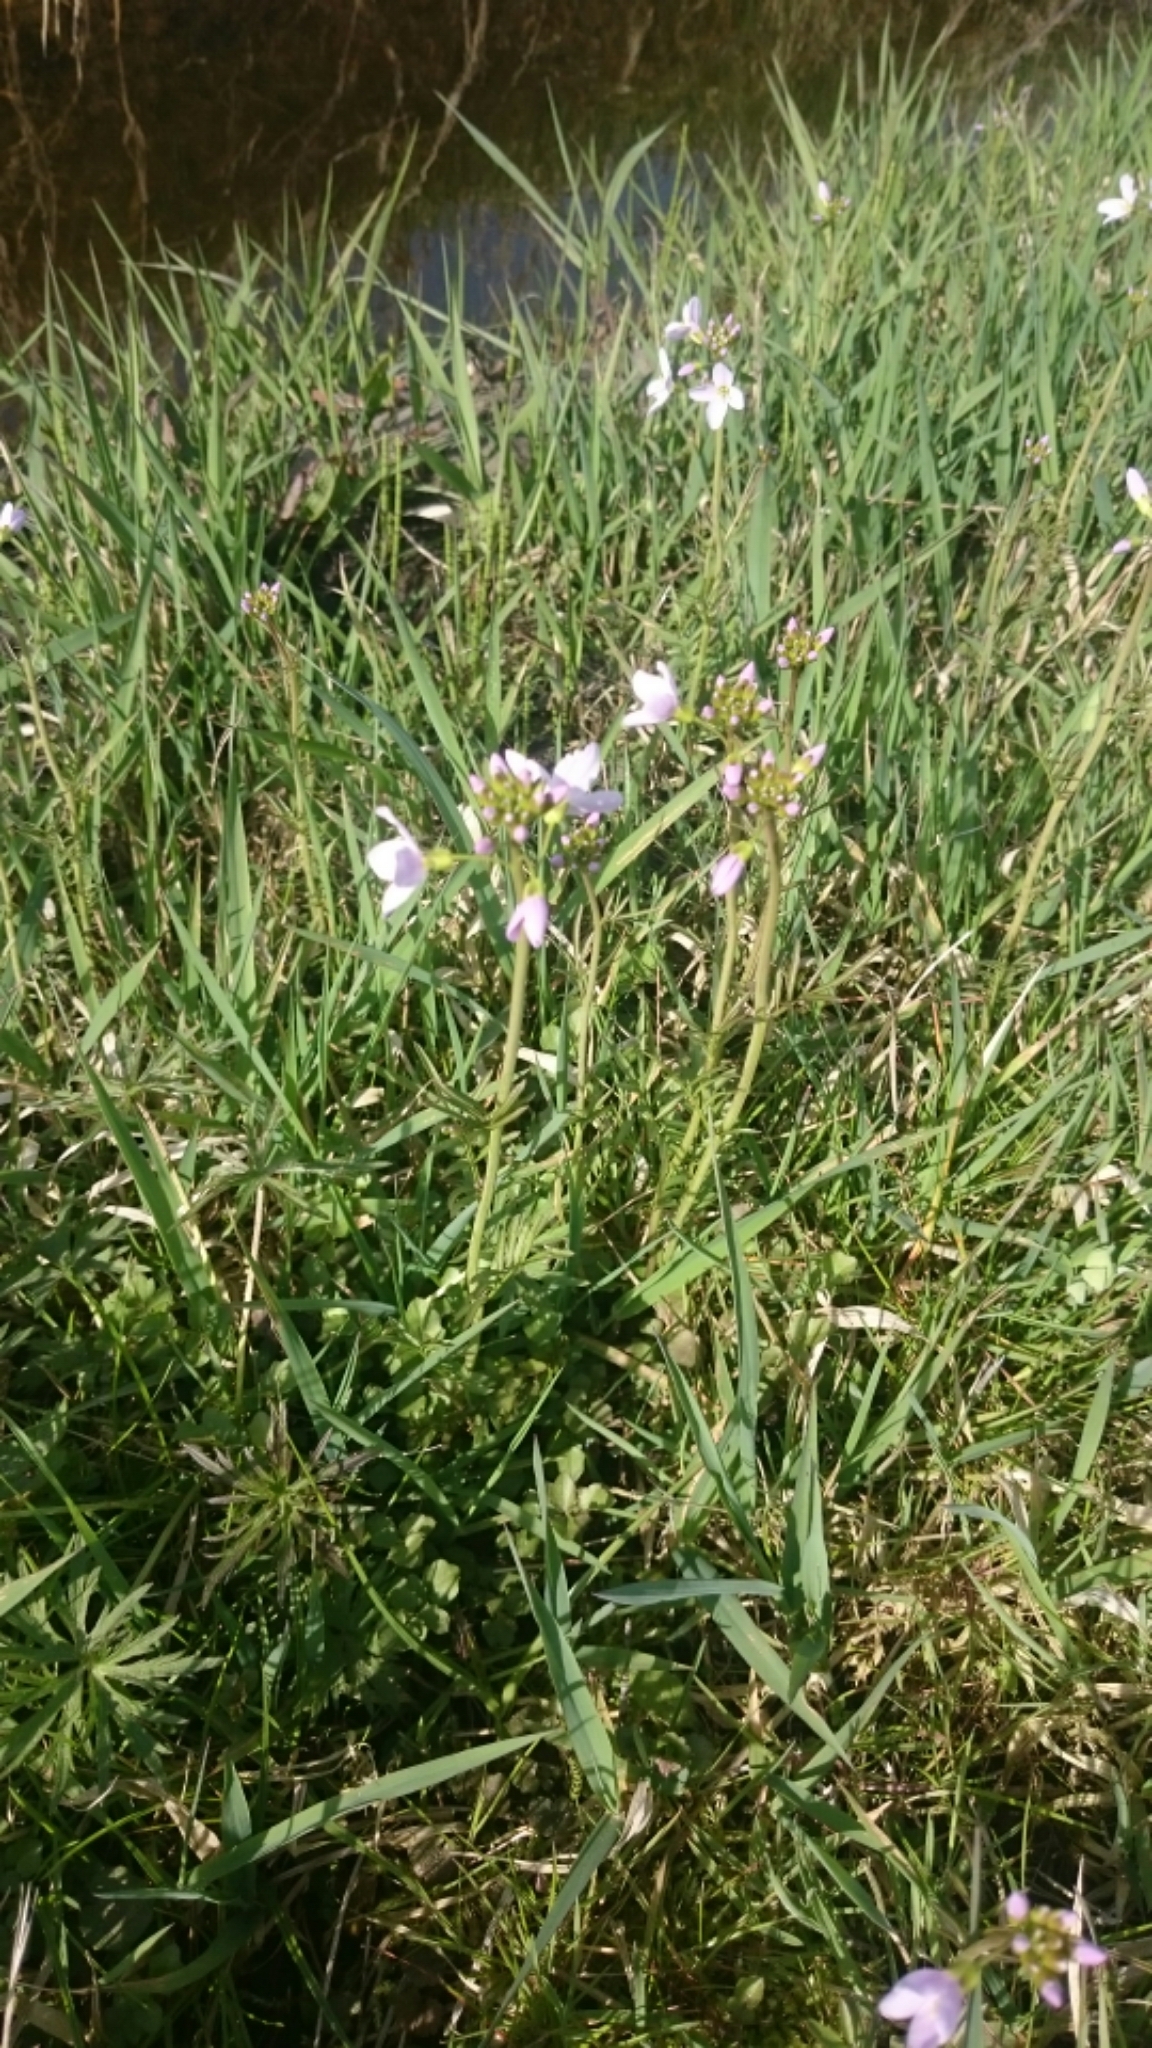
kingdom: Plantae
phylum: Tracheophyta
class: Magnoliopsida
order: Brassicales
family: Brassicaceae
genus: Cardamine
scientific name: Cardamine pratensis
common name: Cuckoo flower
